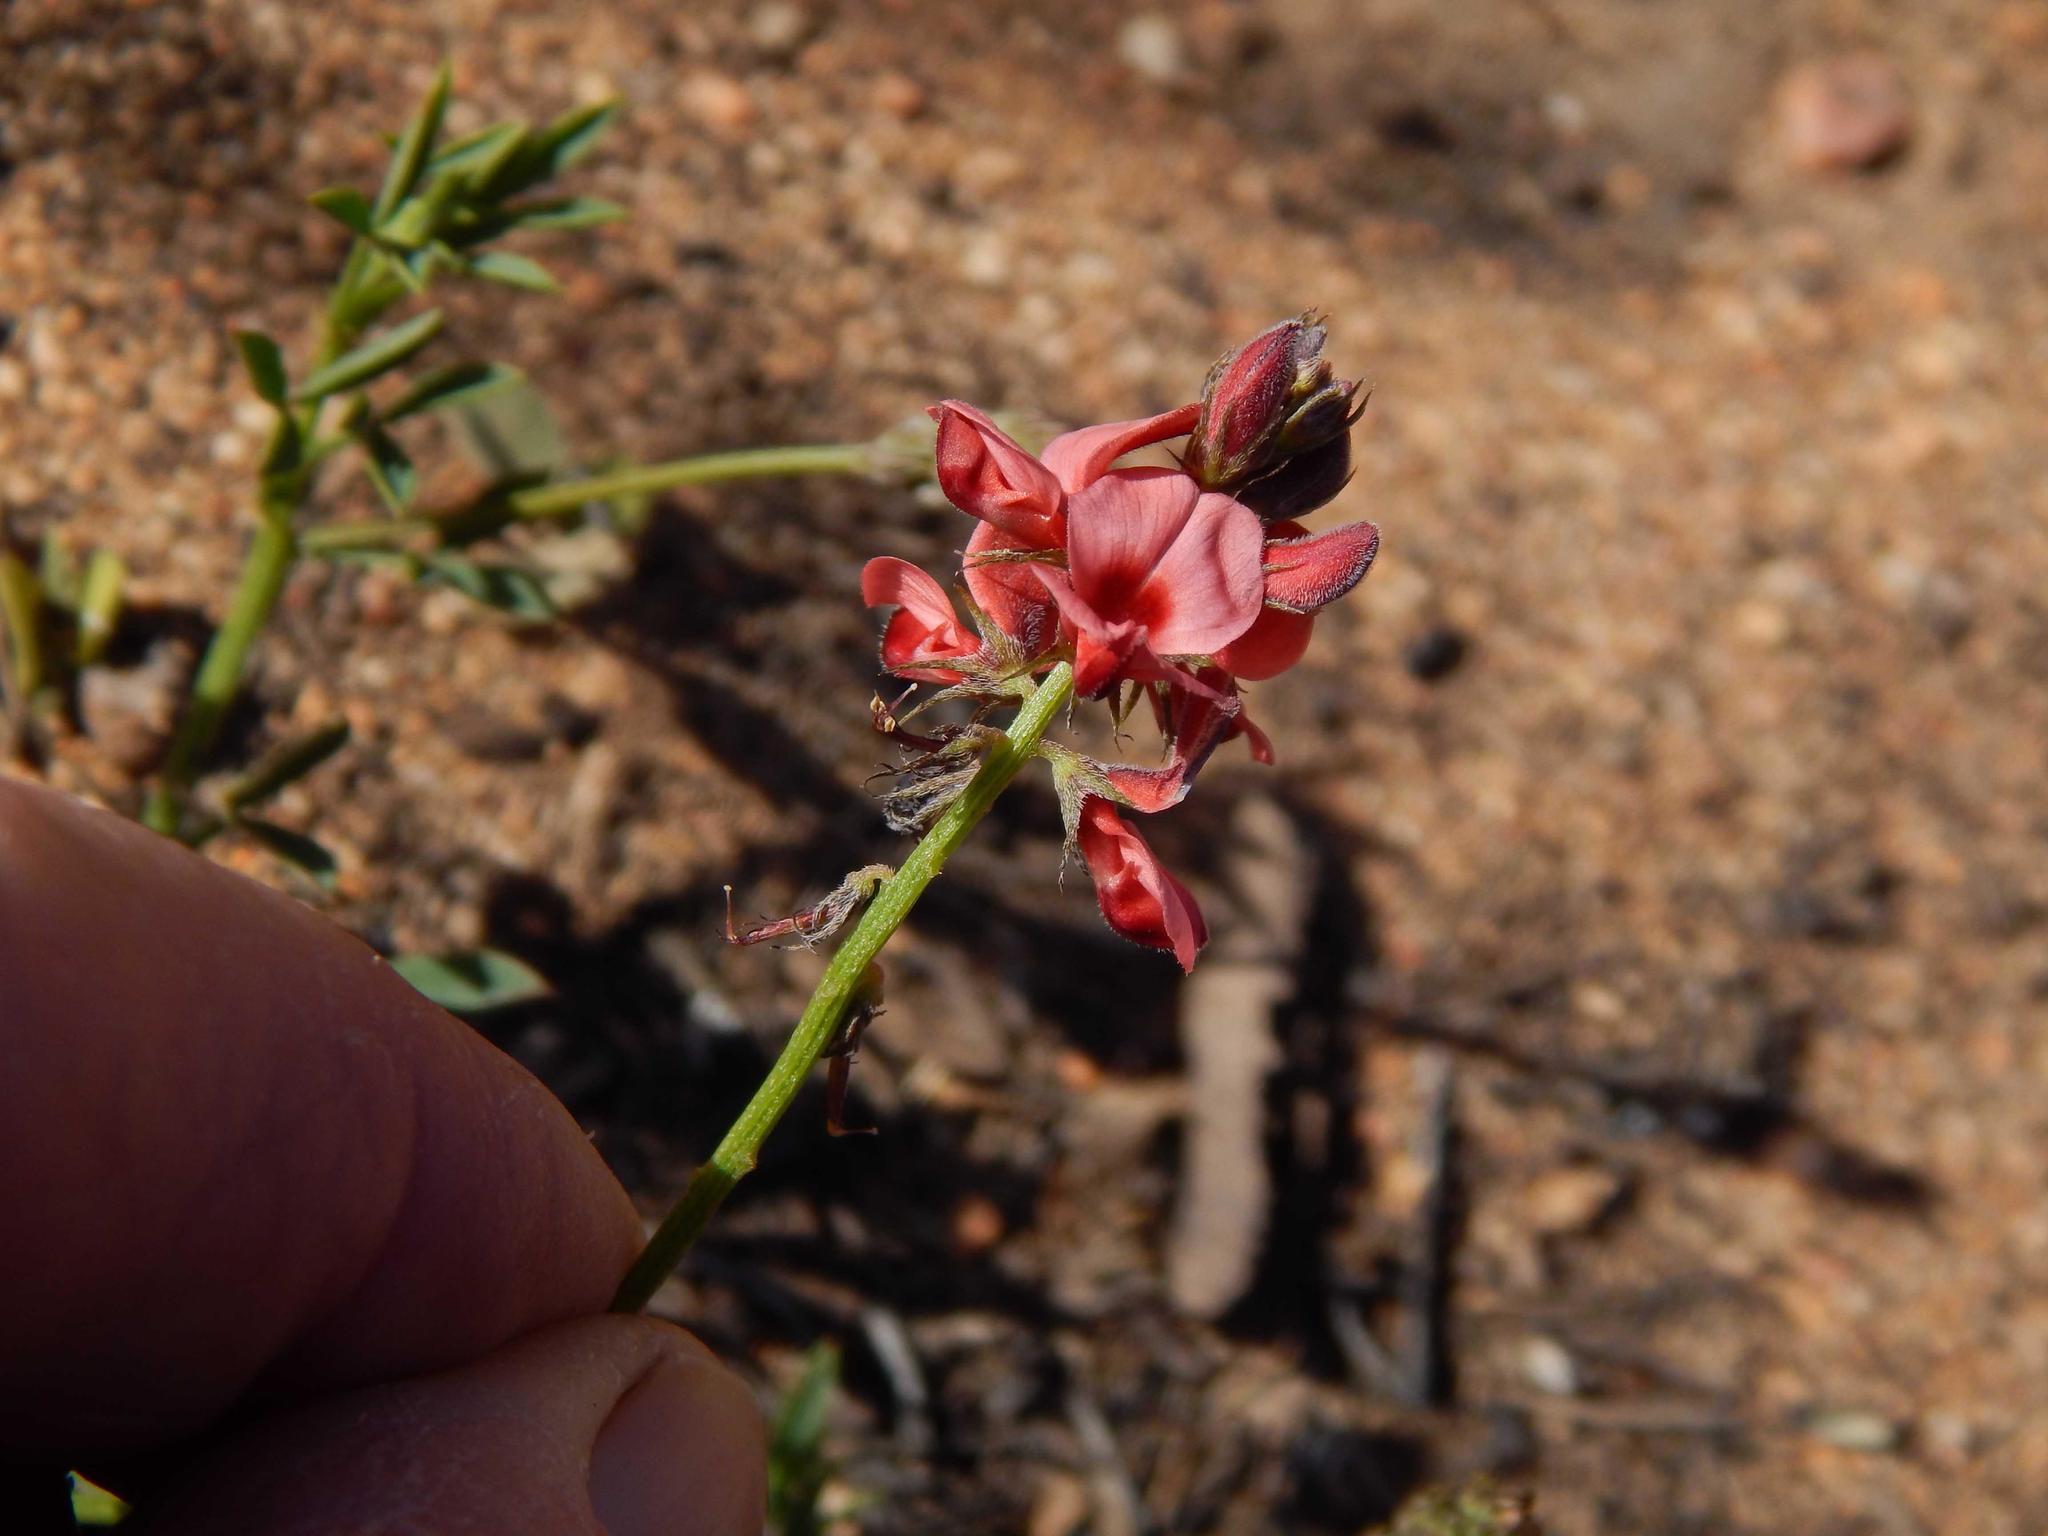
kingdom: Plantae
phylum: Tracheophyta
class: Magnoliopsida
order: Fabales
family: Fabaceae
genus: Indigofera
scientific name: Indigofera heterophylla
